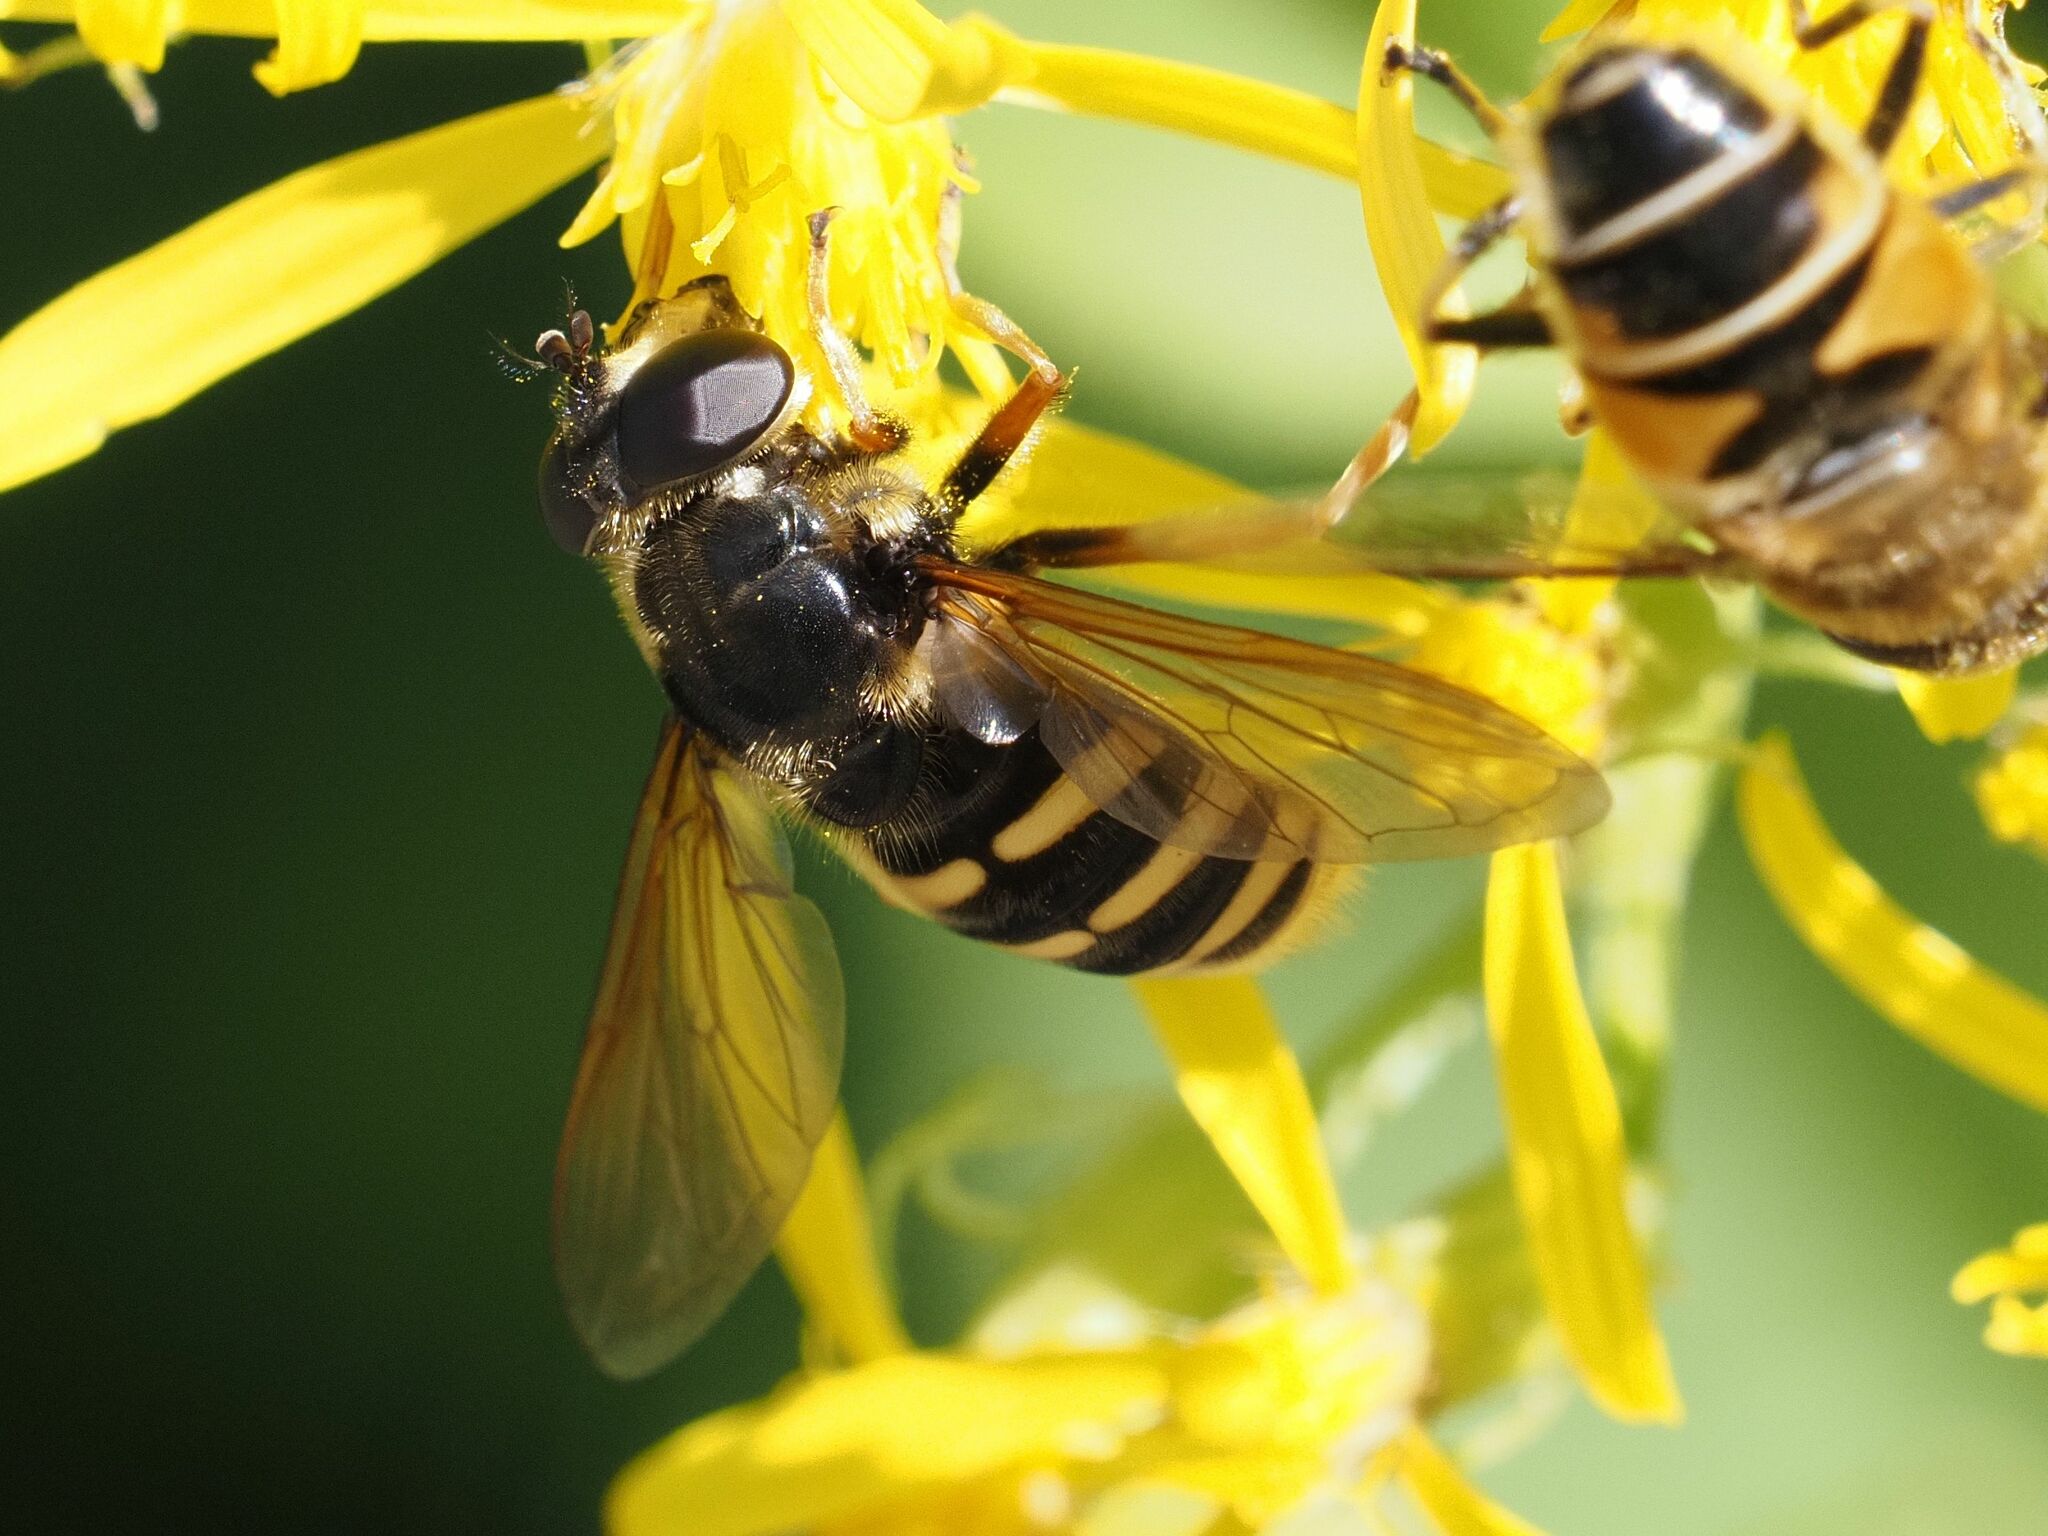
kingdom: Animalia
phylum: Arthropoda
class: Insecta
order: Diptera
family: Syrphidae
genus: Sericomyia
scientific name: Sericomyia silentis
